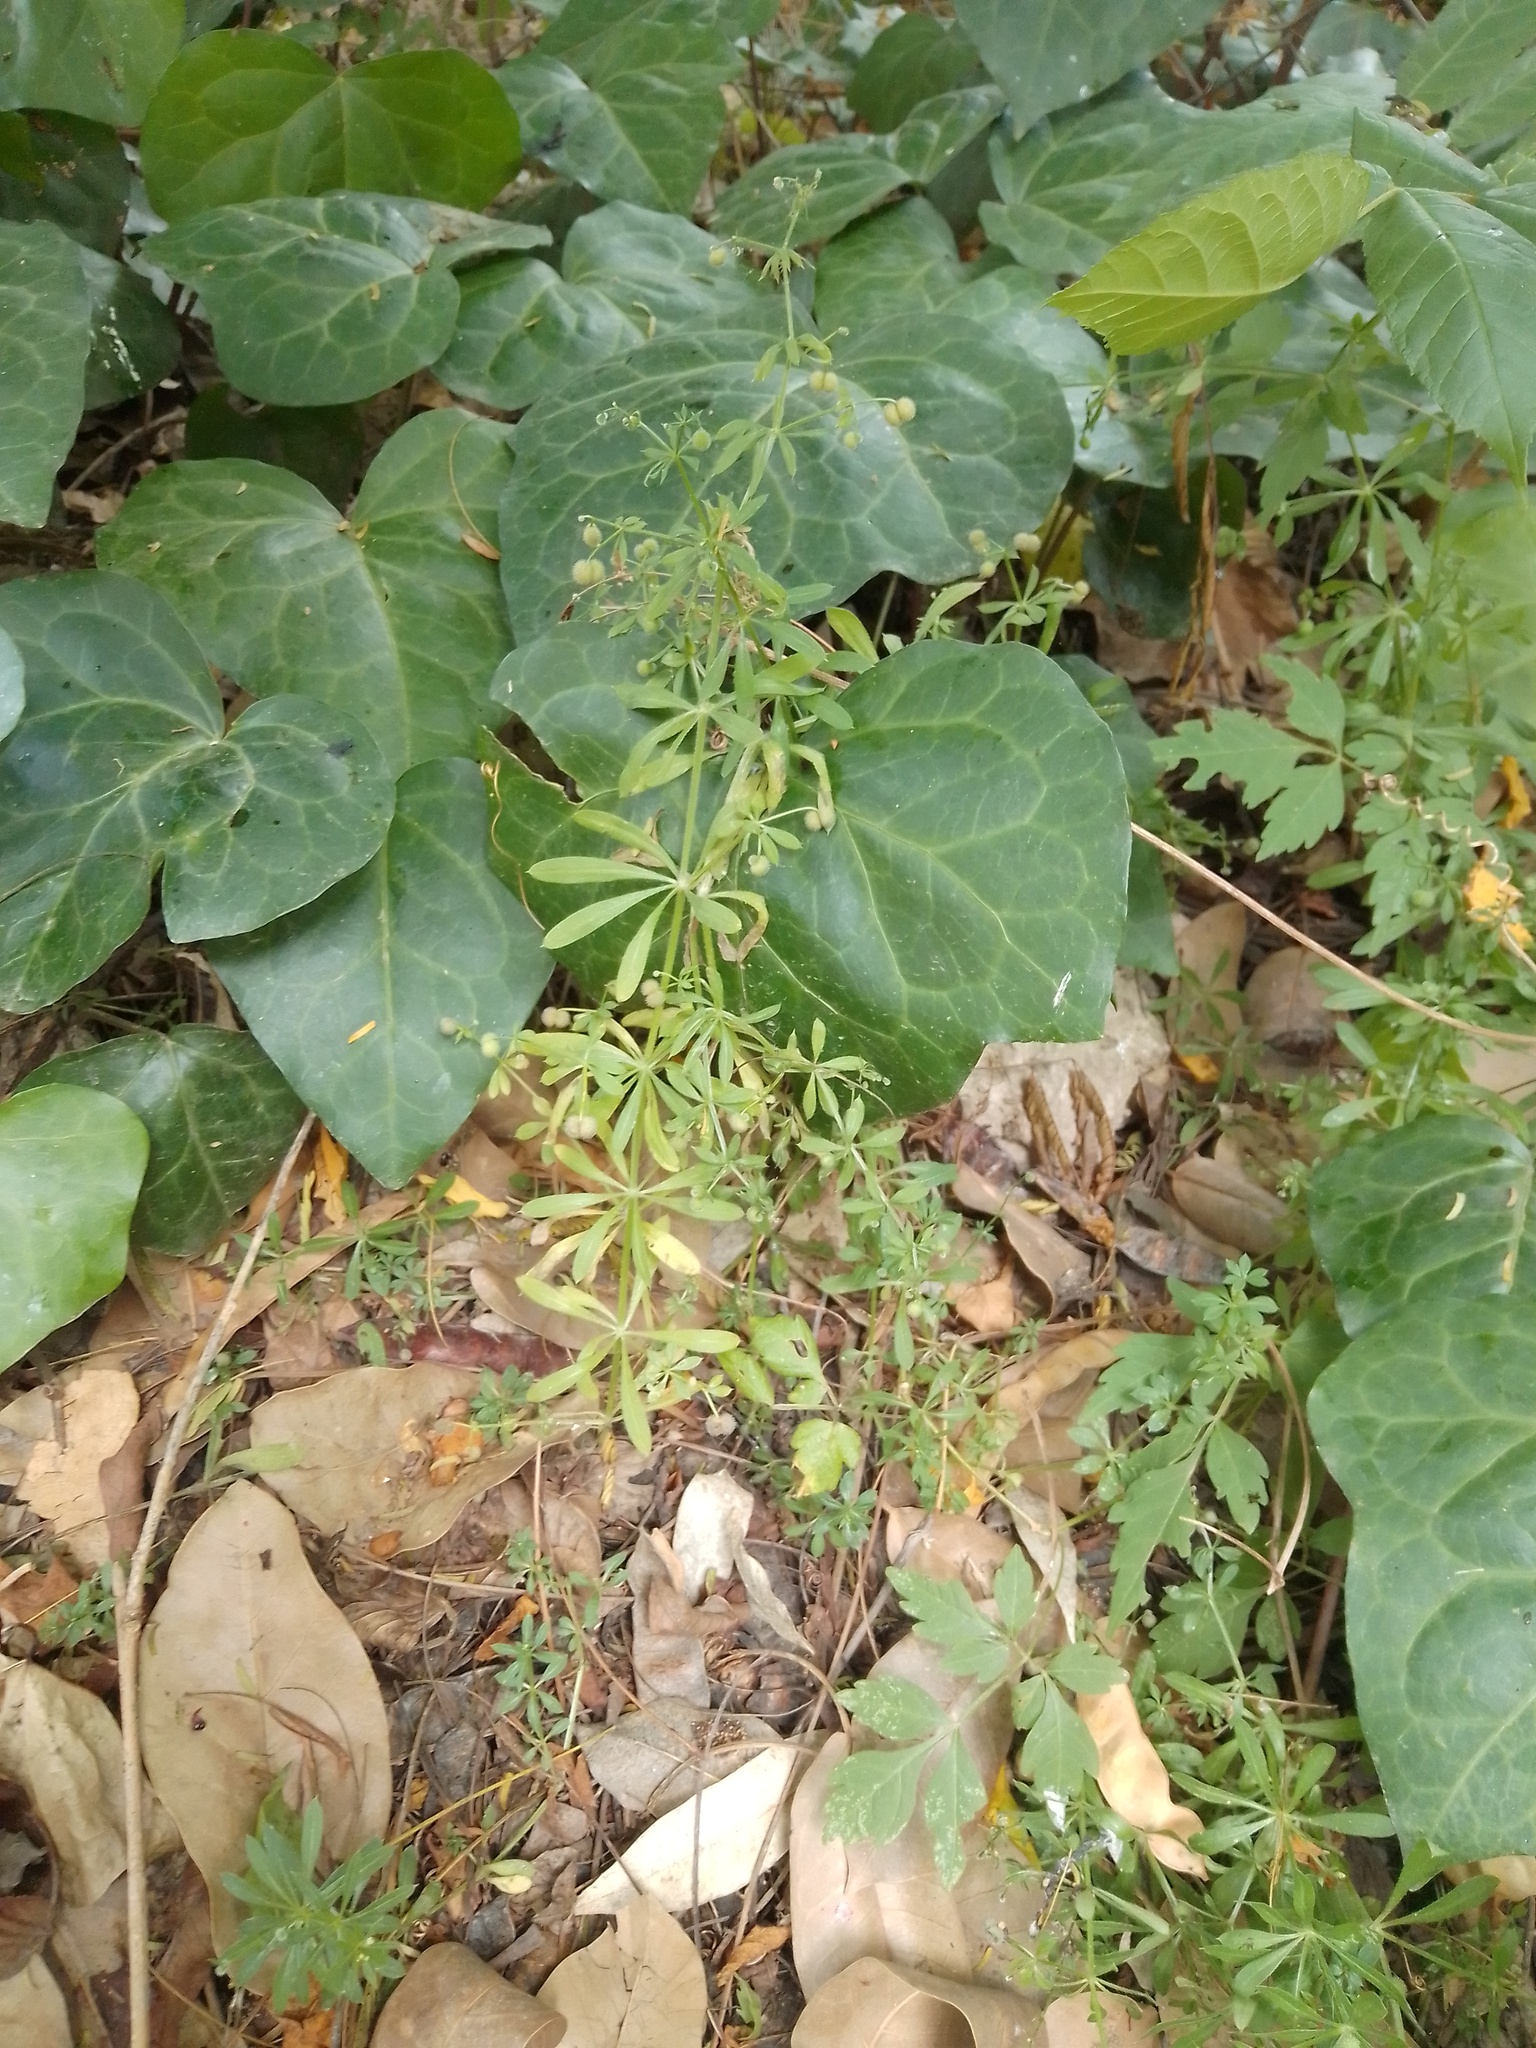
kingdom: Plantae
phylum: Tracheophyta
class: Magnoliopsida
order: Apiales
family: Araliaceae
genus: Hedera
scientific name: Hedera helix
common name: Ivy
